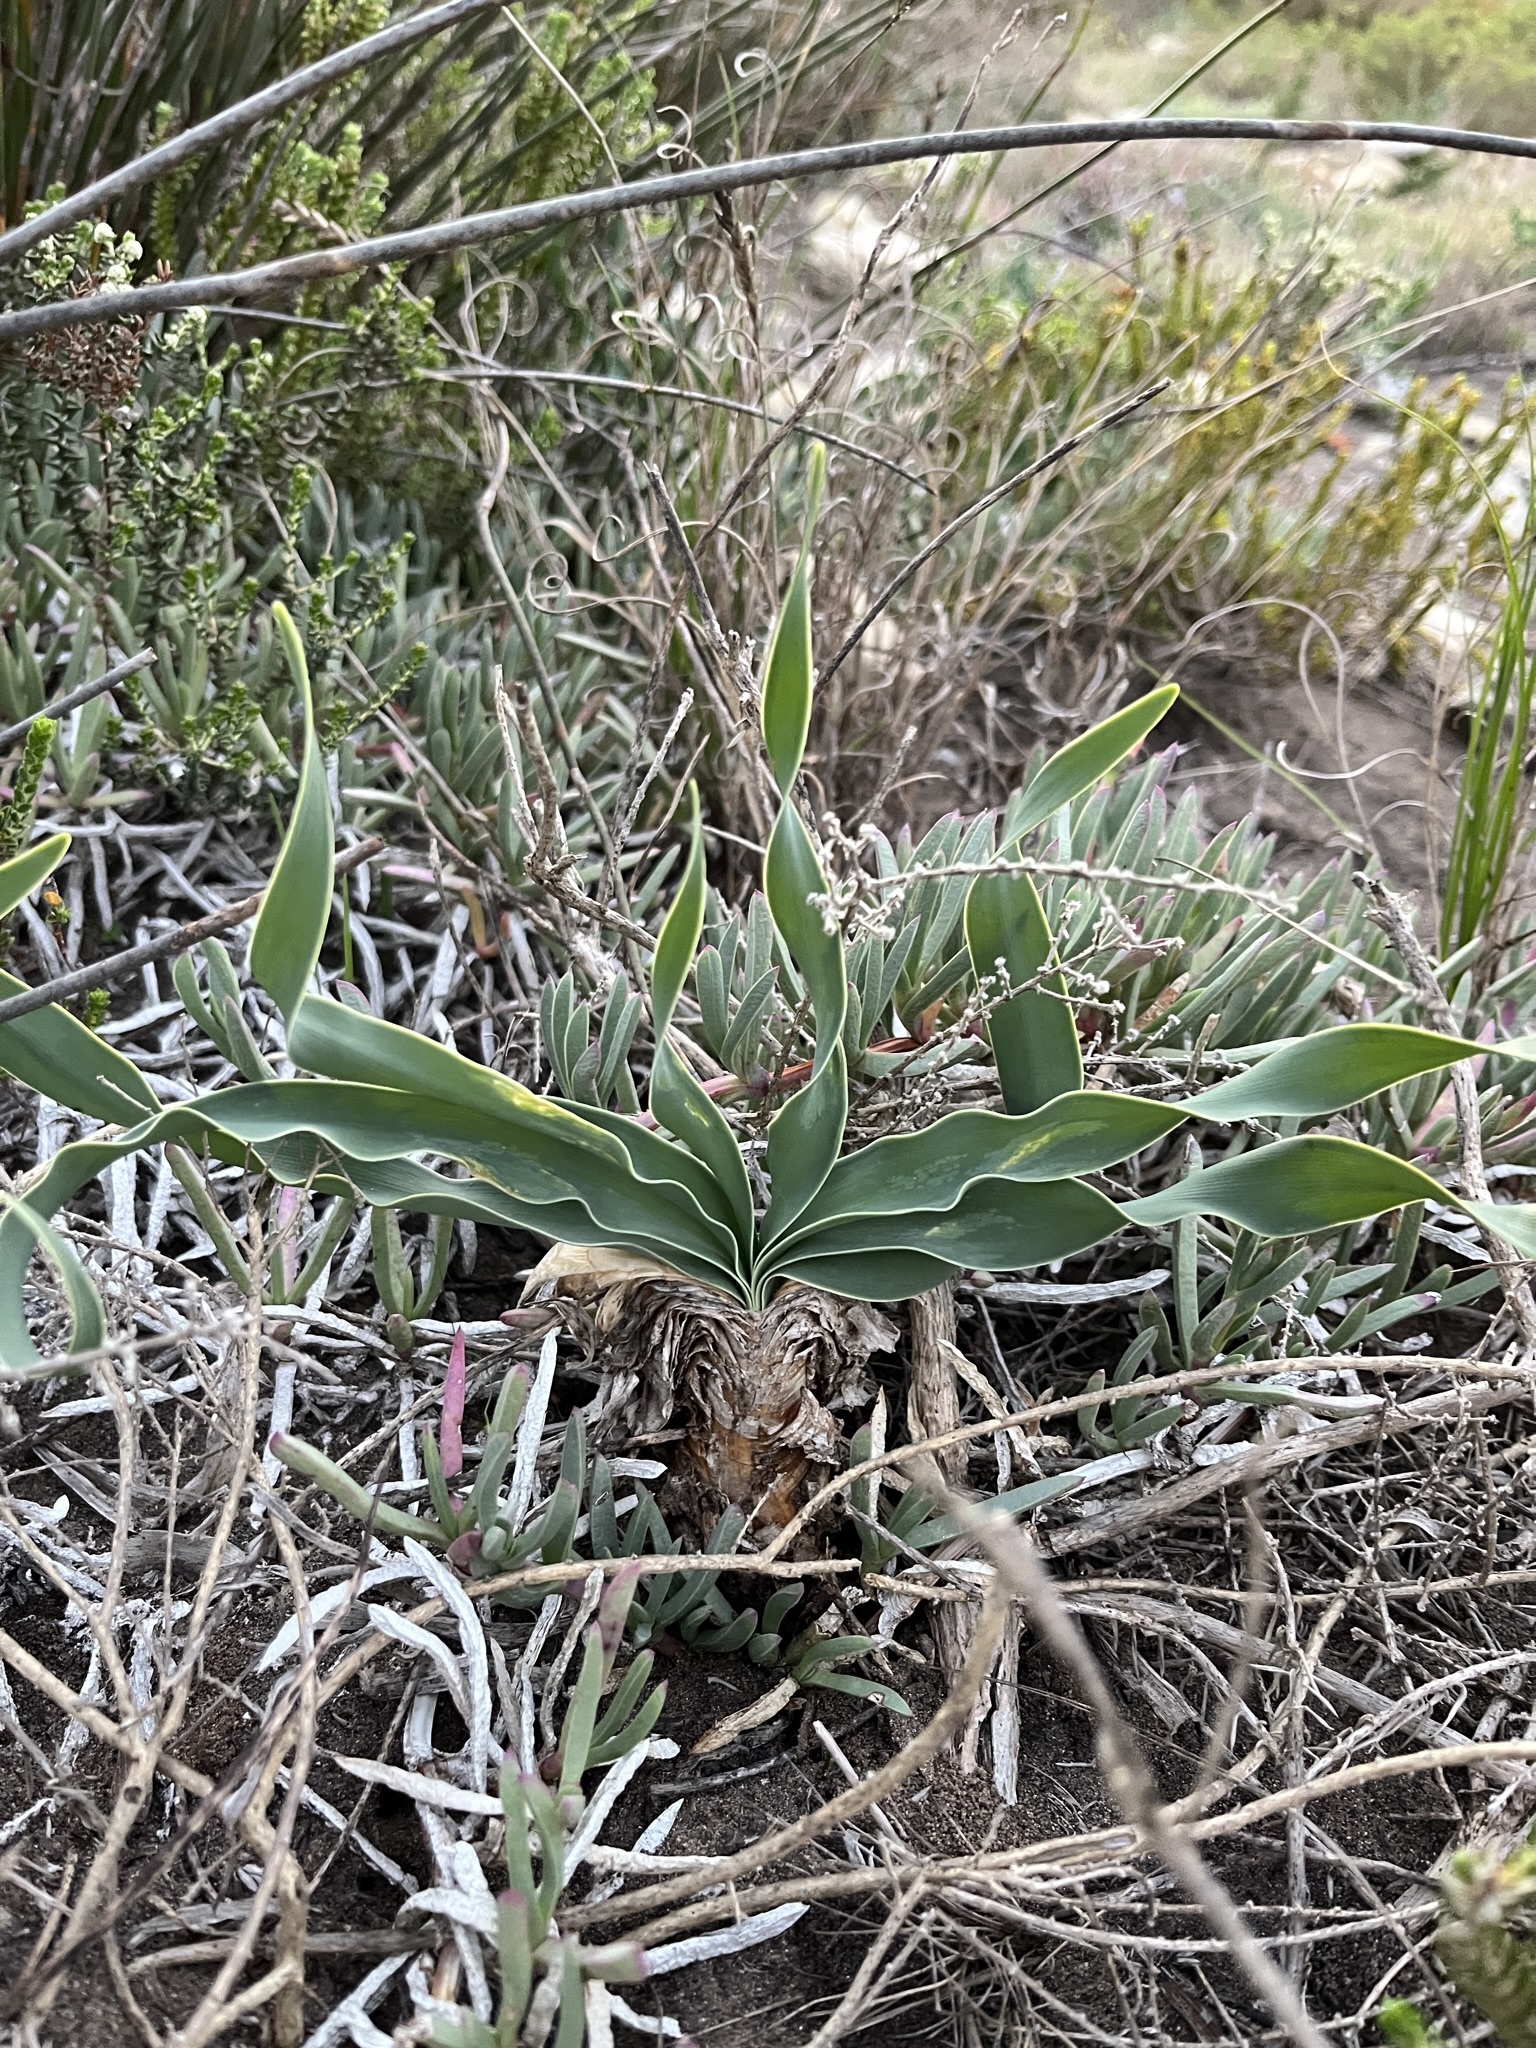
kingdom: Plantae
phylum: Tracheophyta
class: Liliopsida
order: Asparagales
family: Amaryllidaceae
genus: Boophone
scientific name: Boophone disticha
